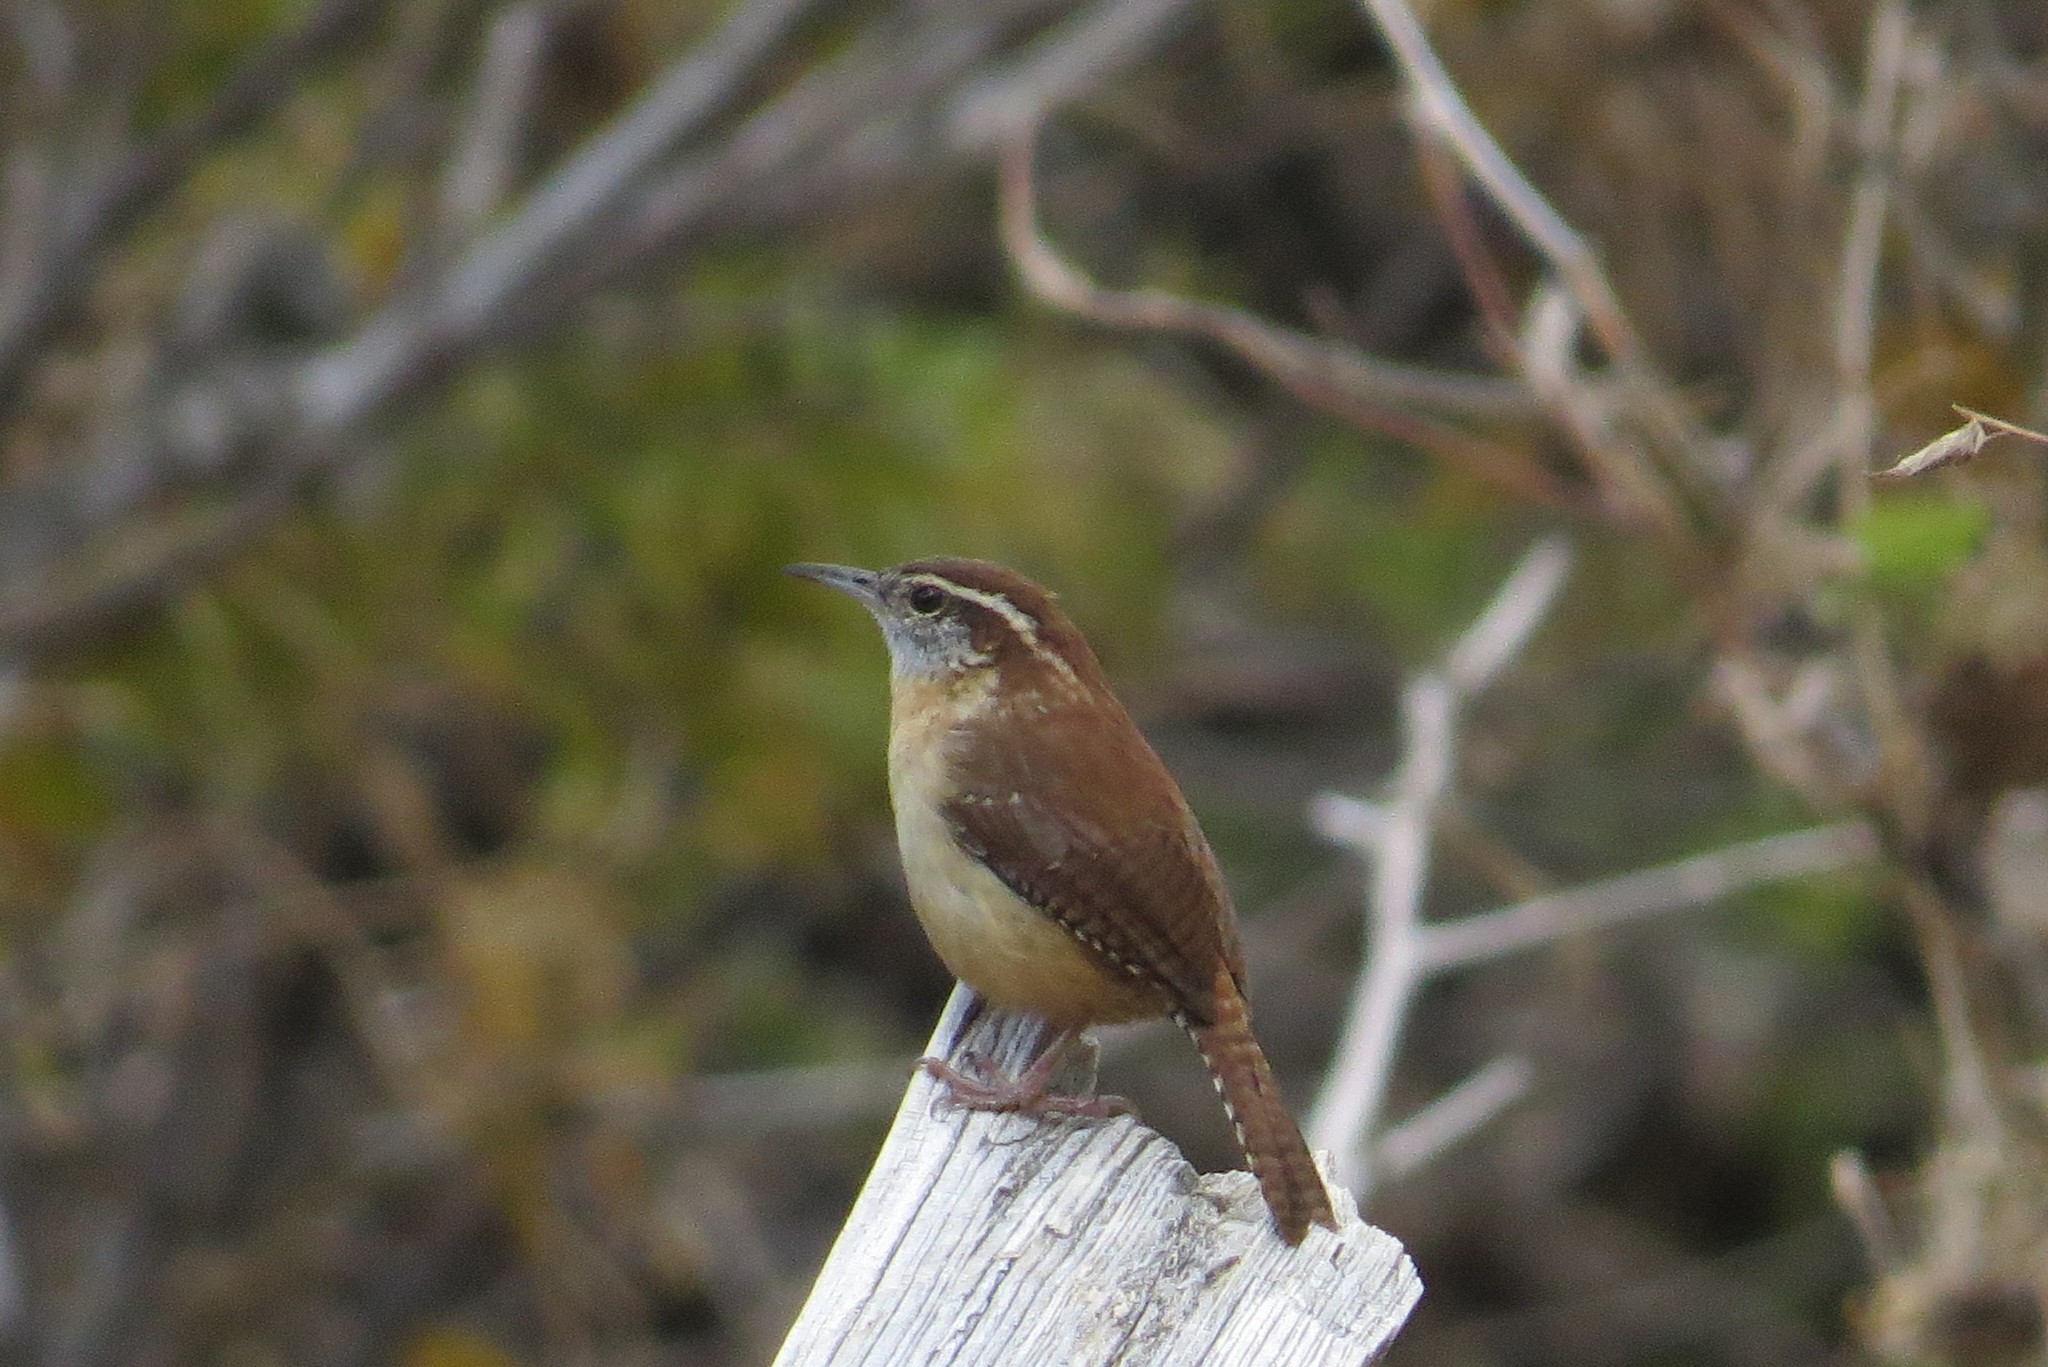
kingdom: Animalia
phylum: Chordata
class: Aves
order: Passeriformes
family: Troglodytidae
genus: Thryothorus
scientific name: Thryothorus ludovicianus
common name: Carolina wren
